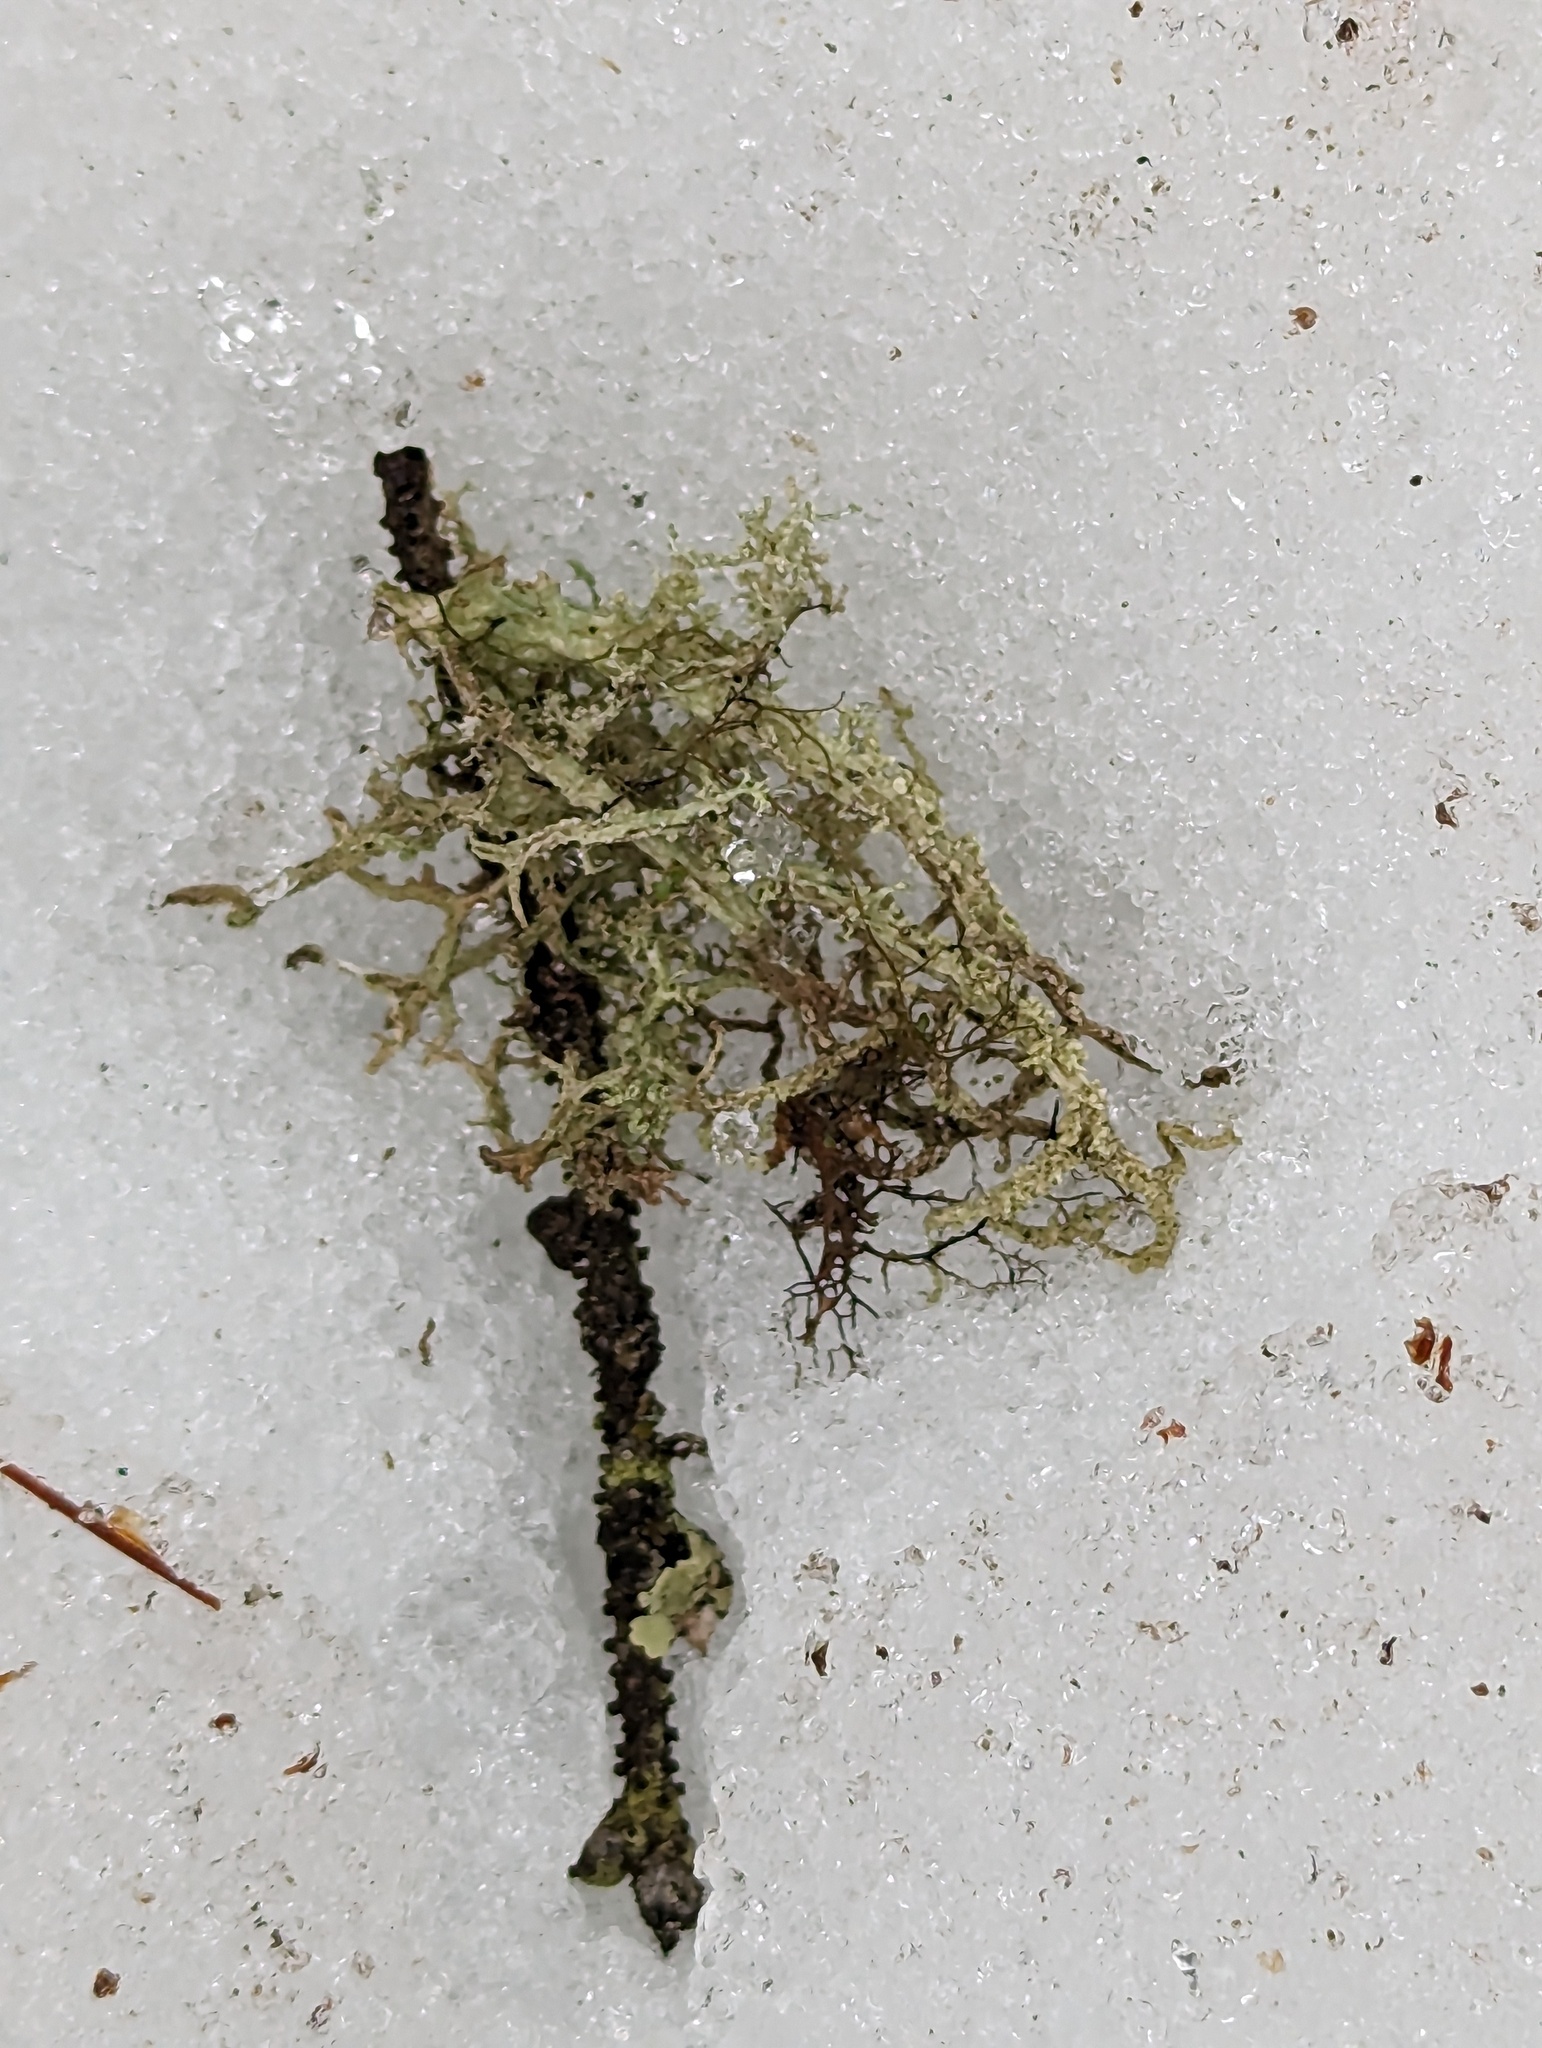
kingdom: Fungi
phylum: Ascomycota
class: Lecanoromycetes
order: Lecanorales
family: Parmeliaceae
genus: Evernia
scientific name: Evernia mesomorpha
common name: Boreal oak moss lichen
